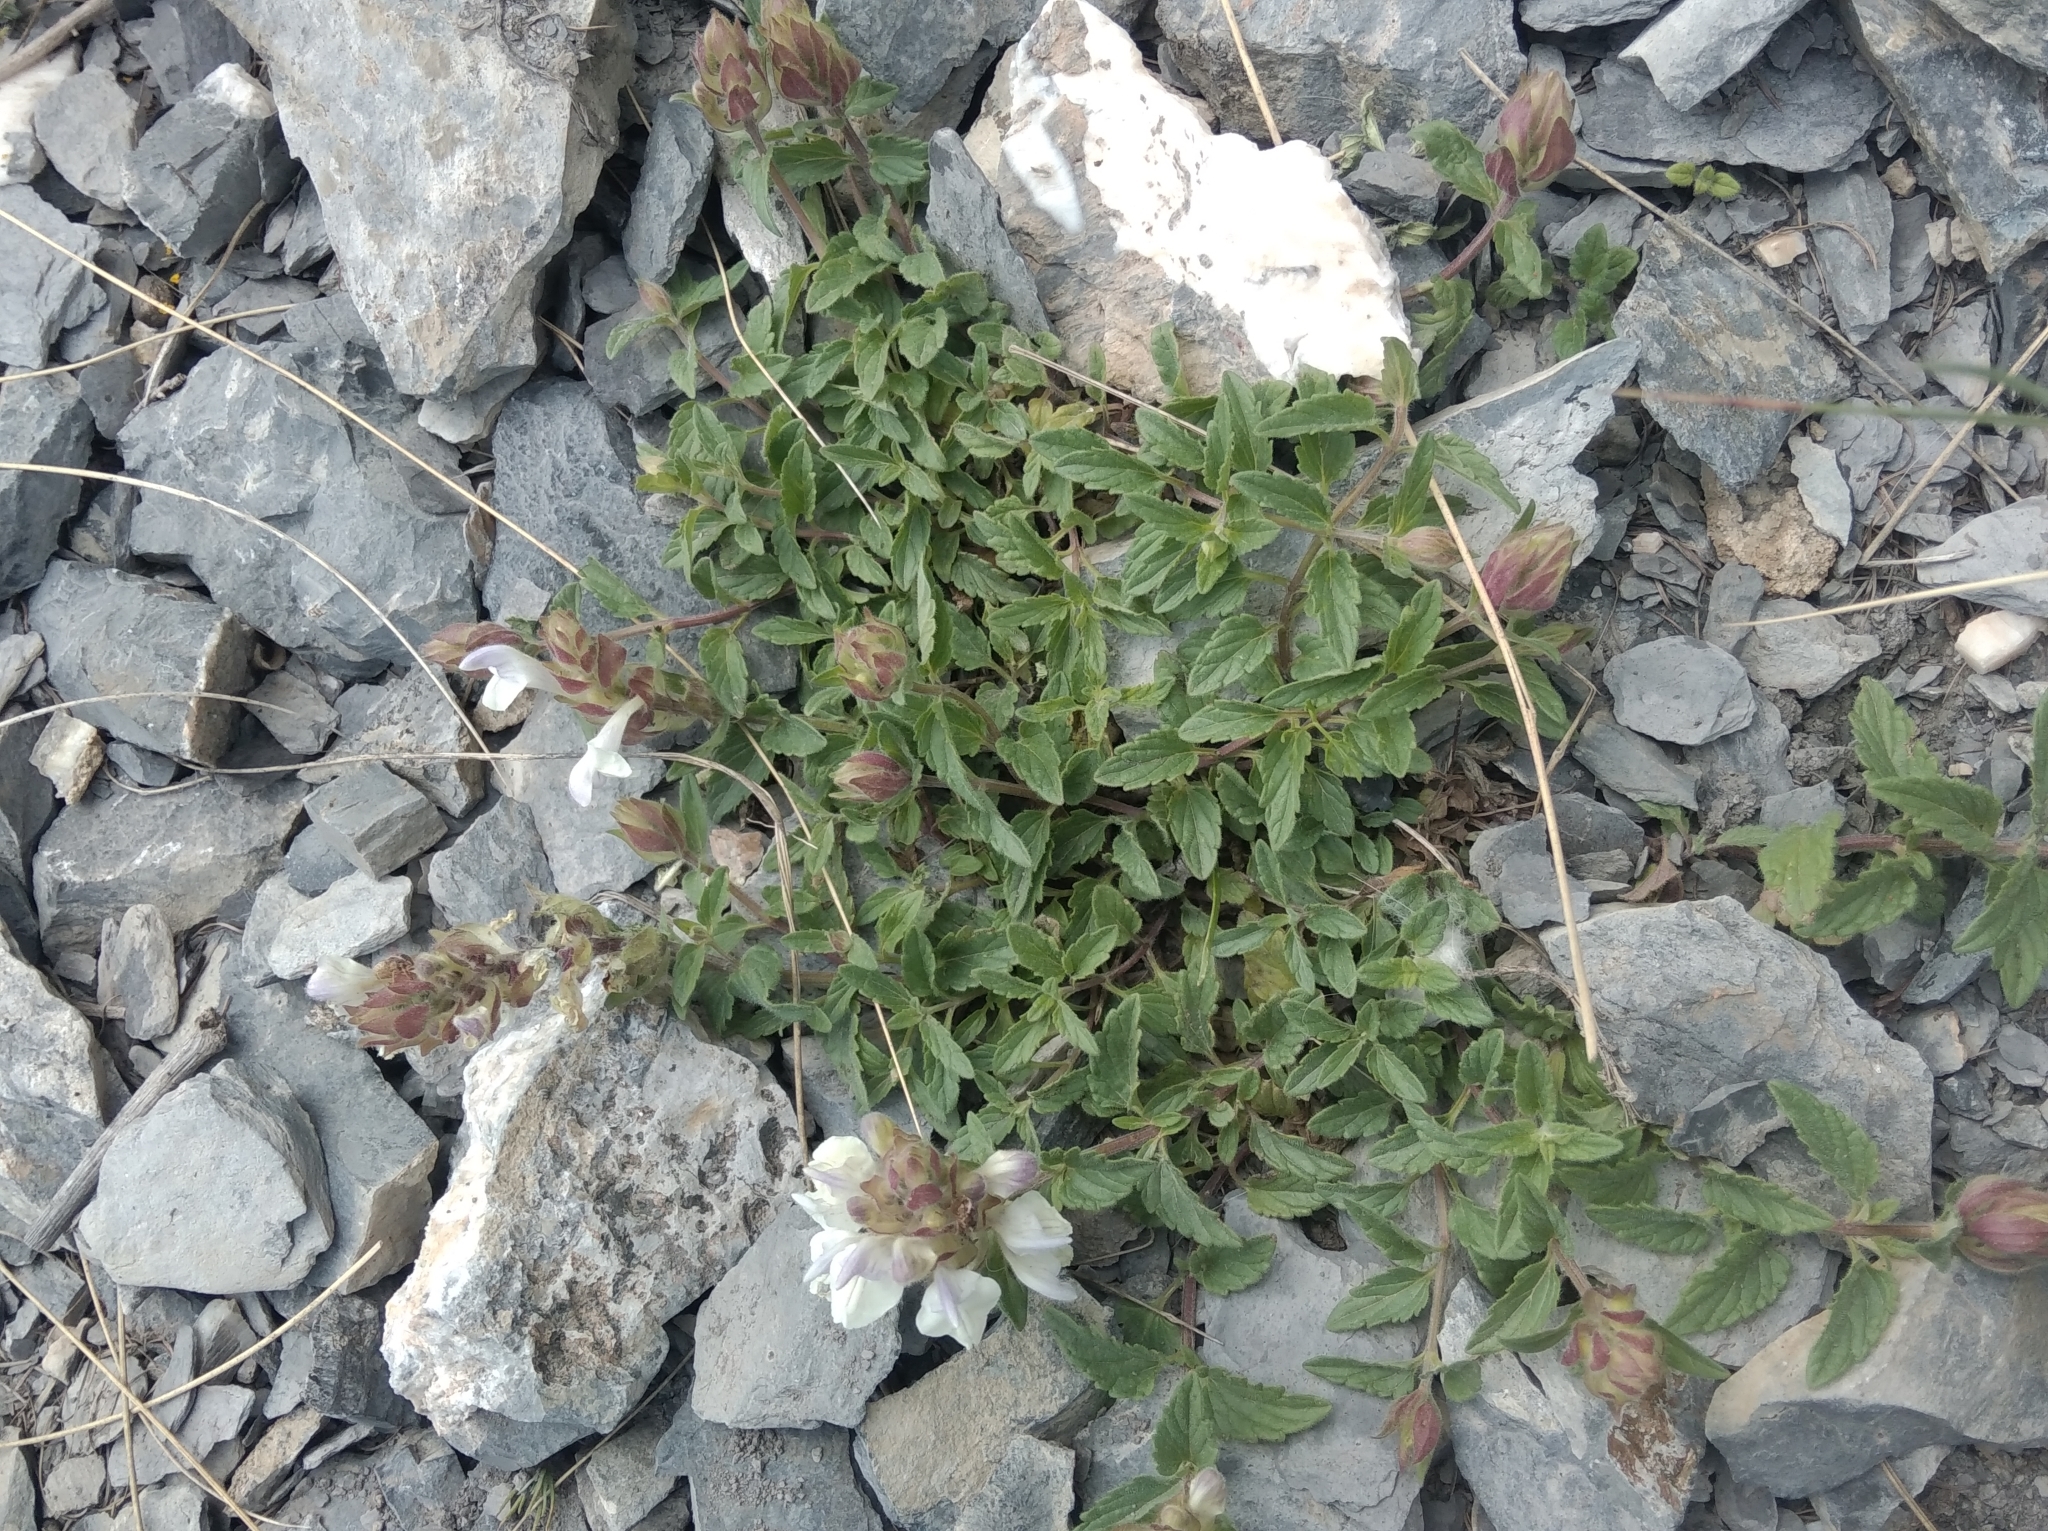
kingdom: Plantae
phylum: Tracheophyta
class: Magnoliopsida
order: Lamiales
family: Lamiaceae
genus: Scutellaria
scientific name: Scutellaria alpina
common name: Alpine scullcap
